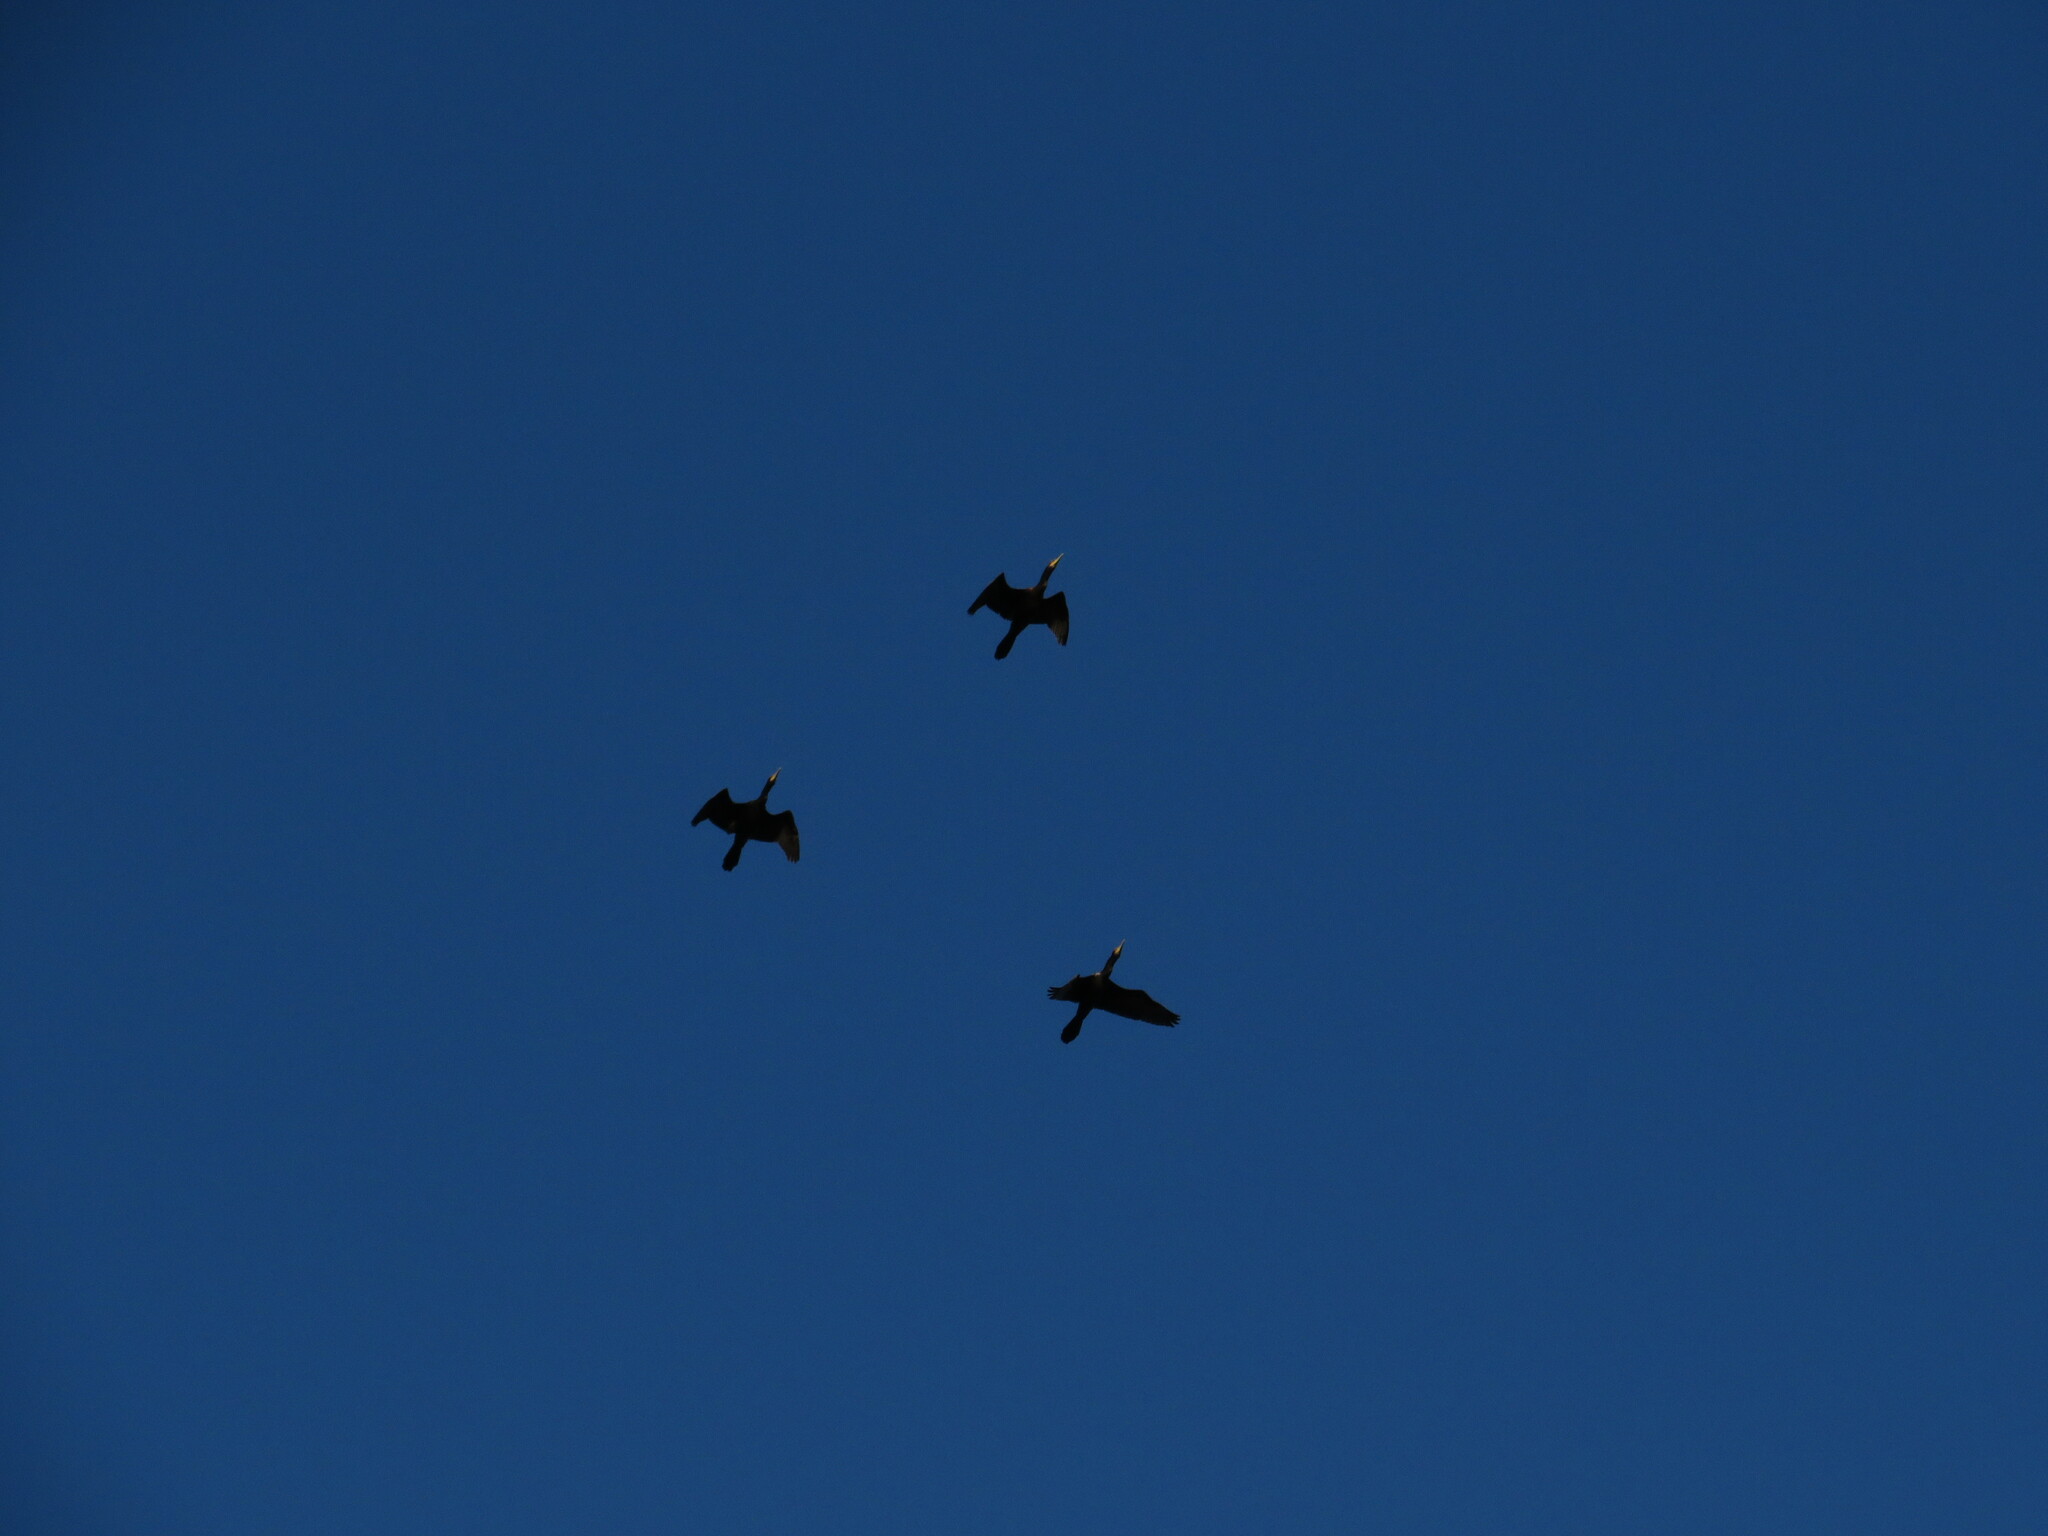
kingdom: Animalia
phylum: Chordata
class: Aves
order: Suliformes
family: Phalacrocoracidae
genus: Phalacrocorax
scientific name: Phalacrocorax brasilianus
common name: Neotropic cormorant
